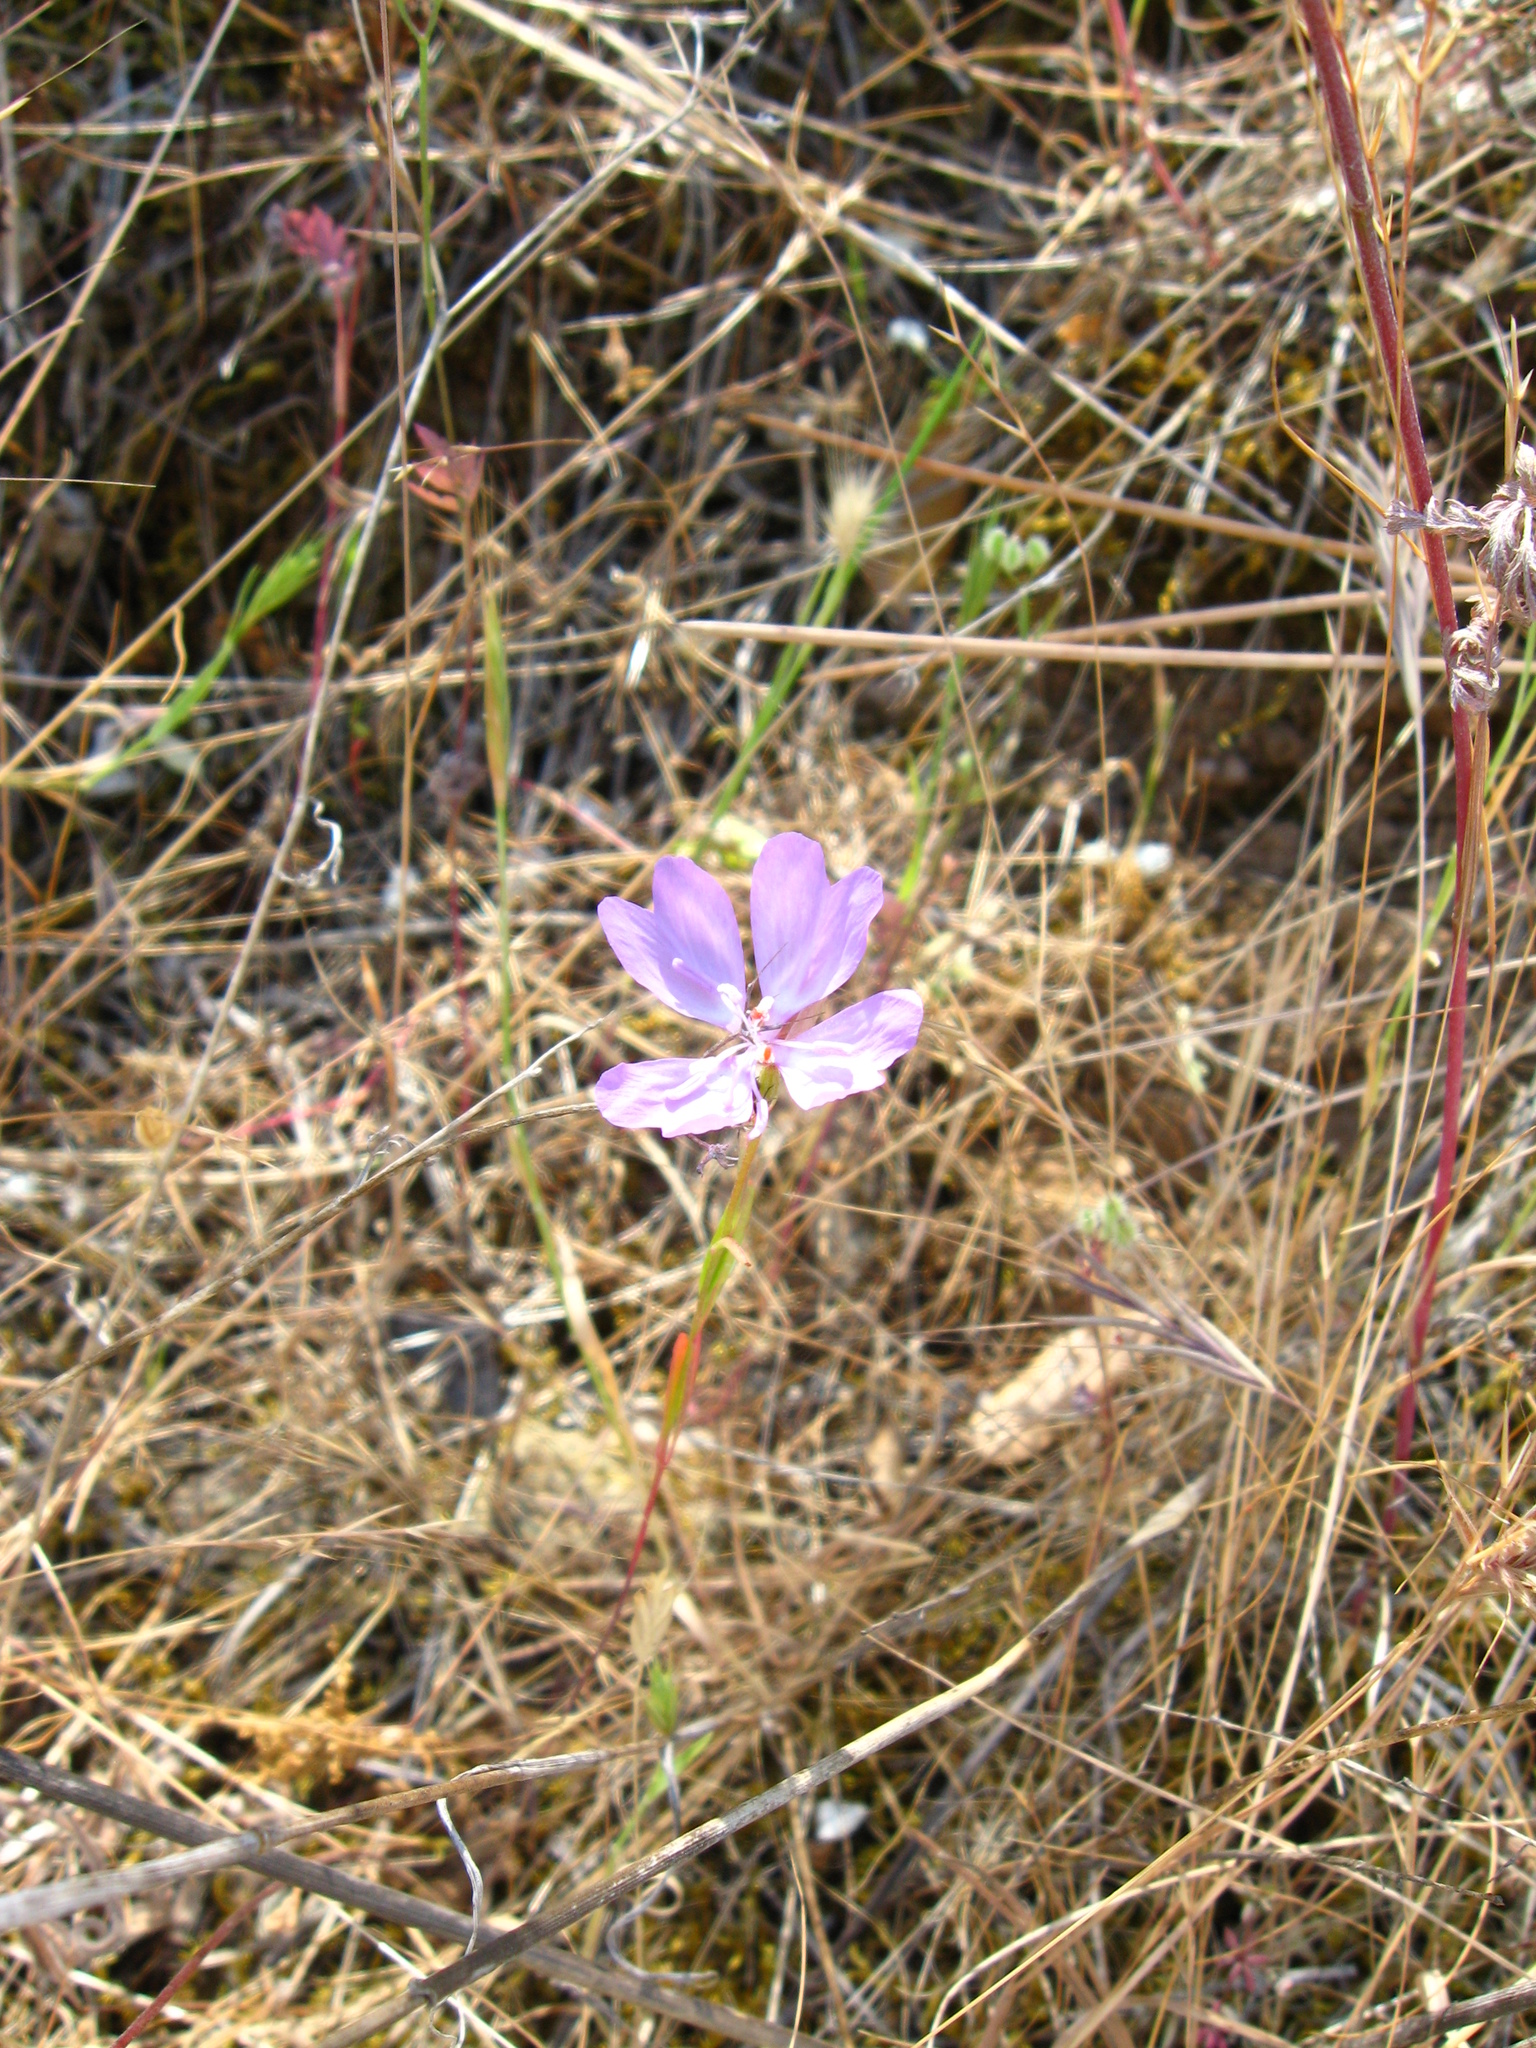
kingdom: Plantae
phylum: Tracheophyta
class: Magnoliopsida
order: Myrtales
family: Onagraceae
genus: Clarkia
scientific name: Clarkia biloba
